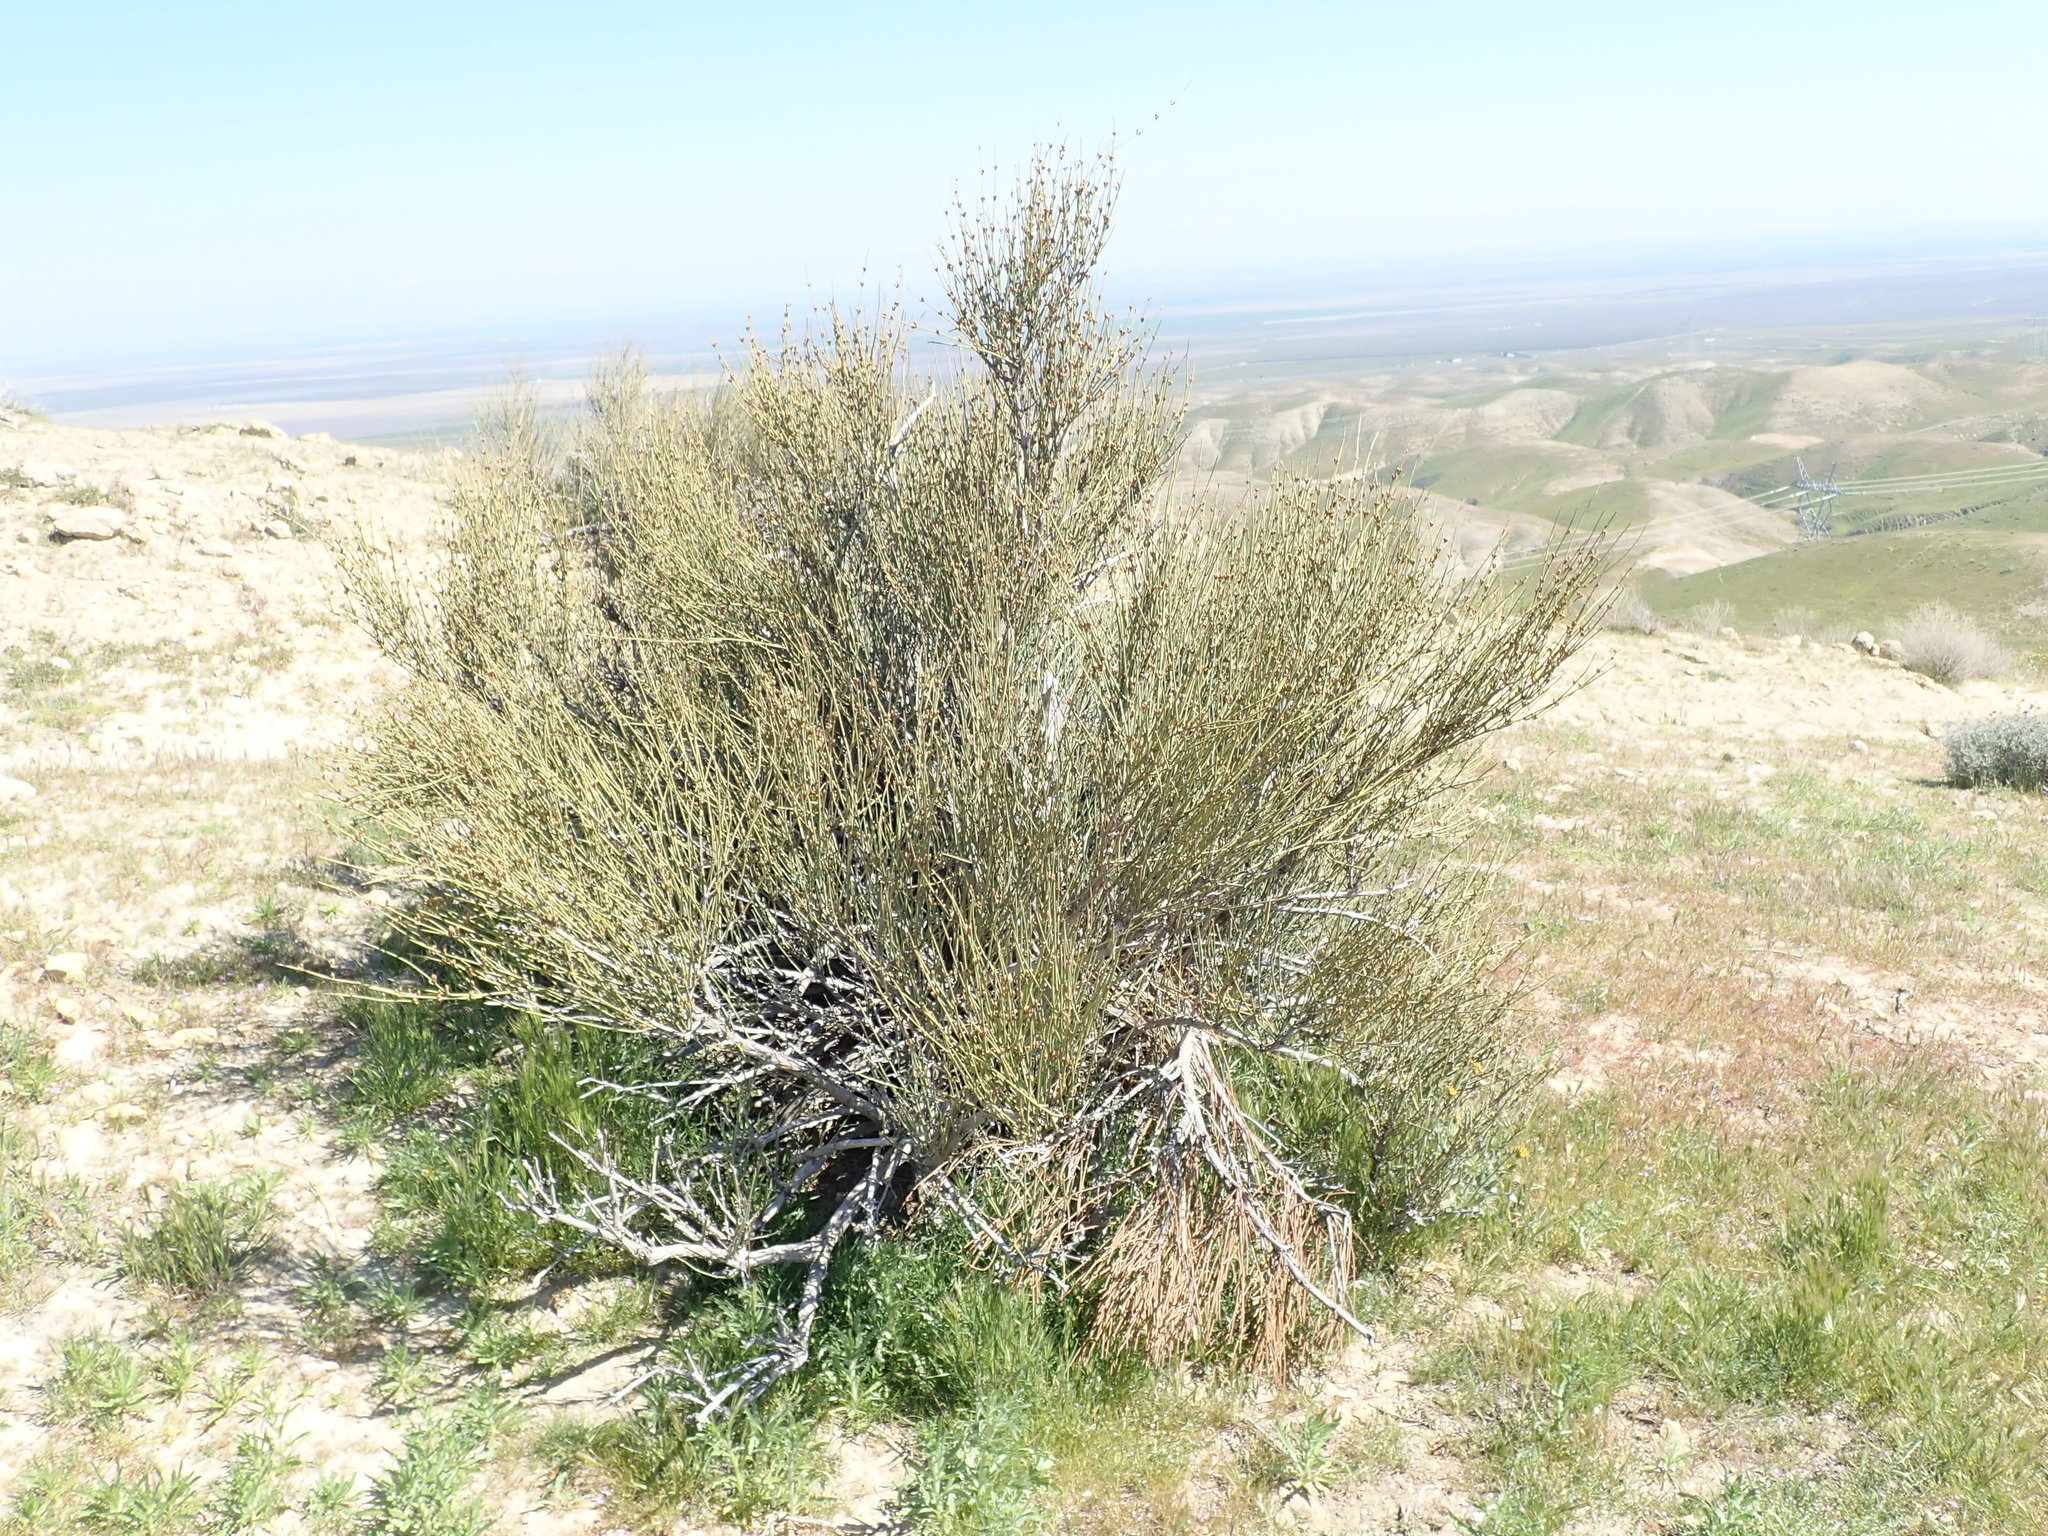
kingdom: Plantae
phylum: Tracheophyta
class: Gnetopsida
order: Ephedrales
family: Ephedraceae
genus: Ephedra
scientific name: Ephedra californica
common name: California ephedra
